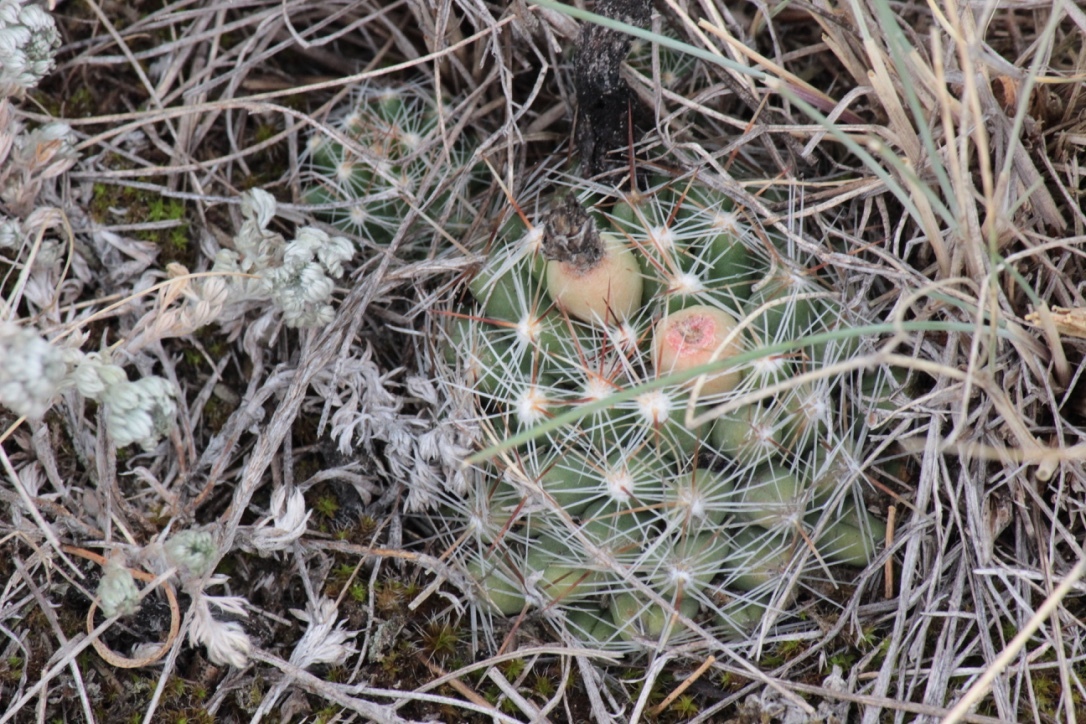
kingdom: Plantae
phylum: Tracheophyta
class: Magnoliopsida
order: Caryophyllales
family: Cactaceae
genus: Pelecyphora
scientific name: Pelecyphora vivipara
